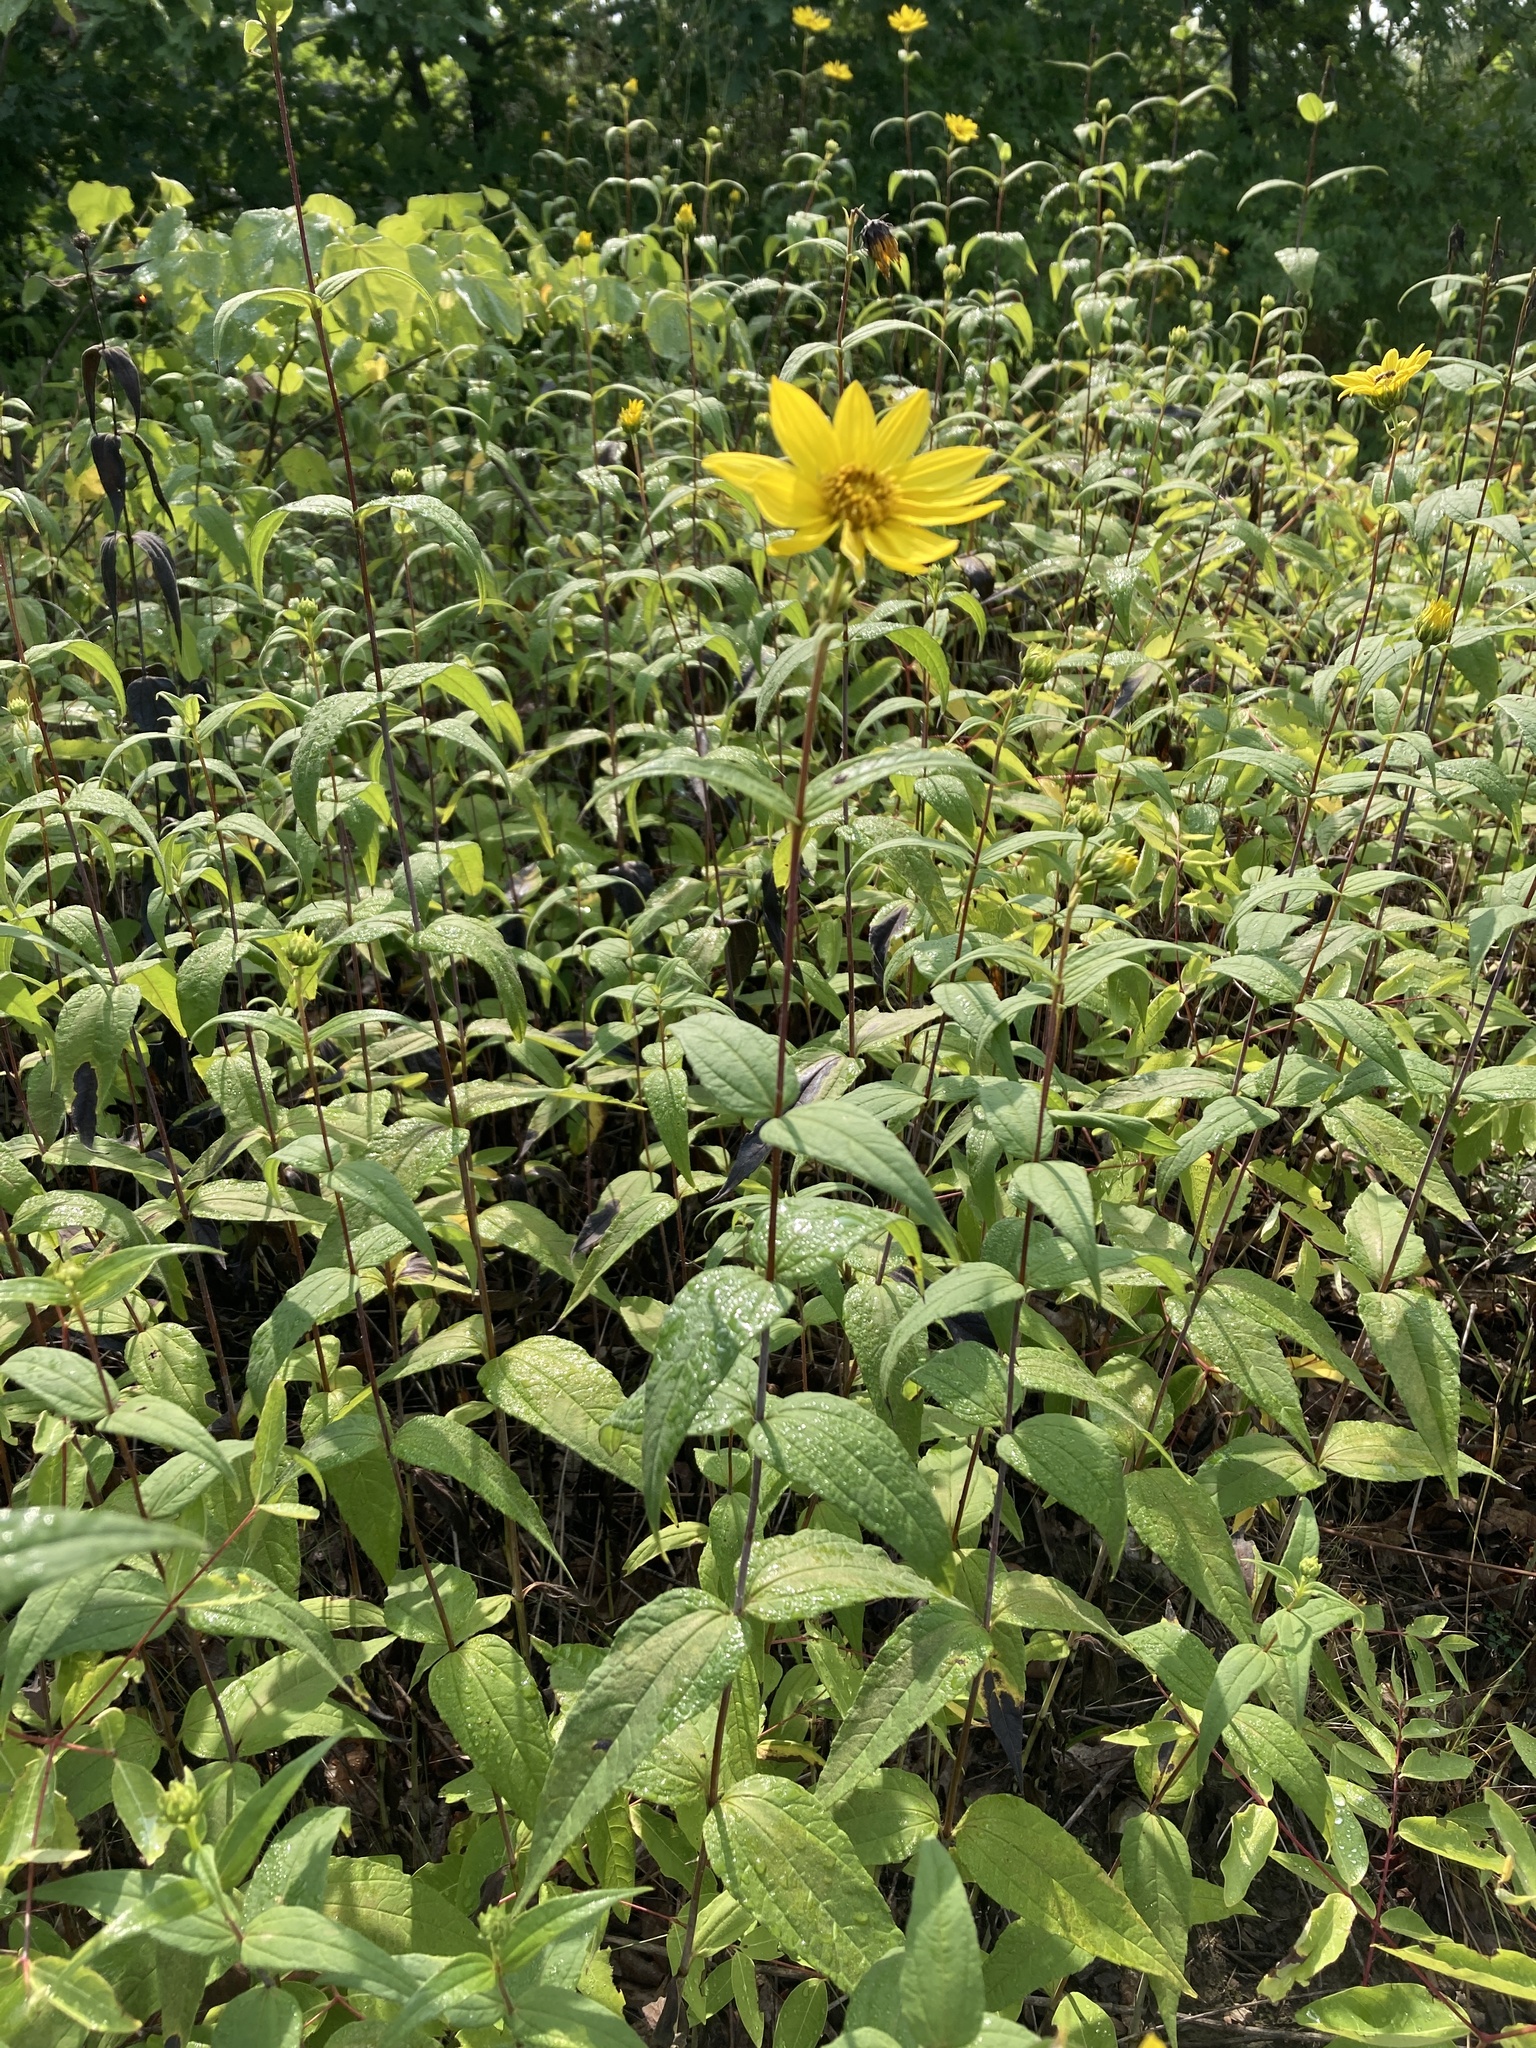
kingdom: Plantae
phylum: Tracheophyta
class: Magnoliopsida
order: Asterales
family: Asteraceae
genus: Helianthus
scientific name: Helianthus divaricatus
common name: Divergent sunflower
